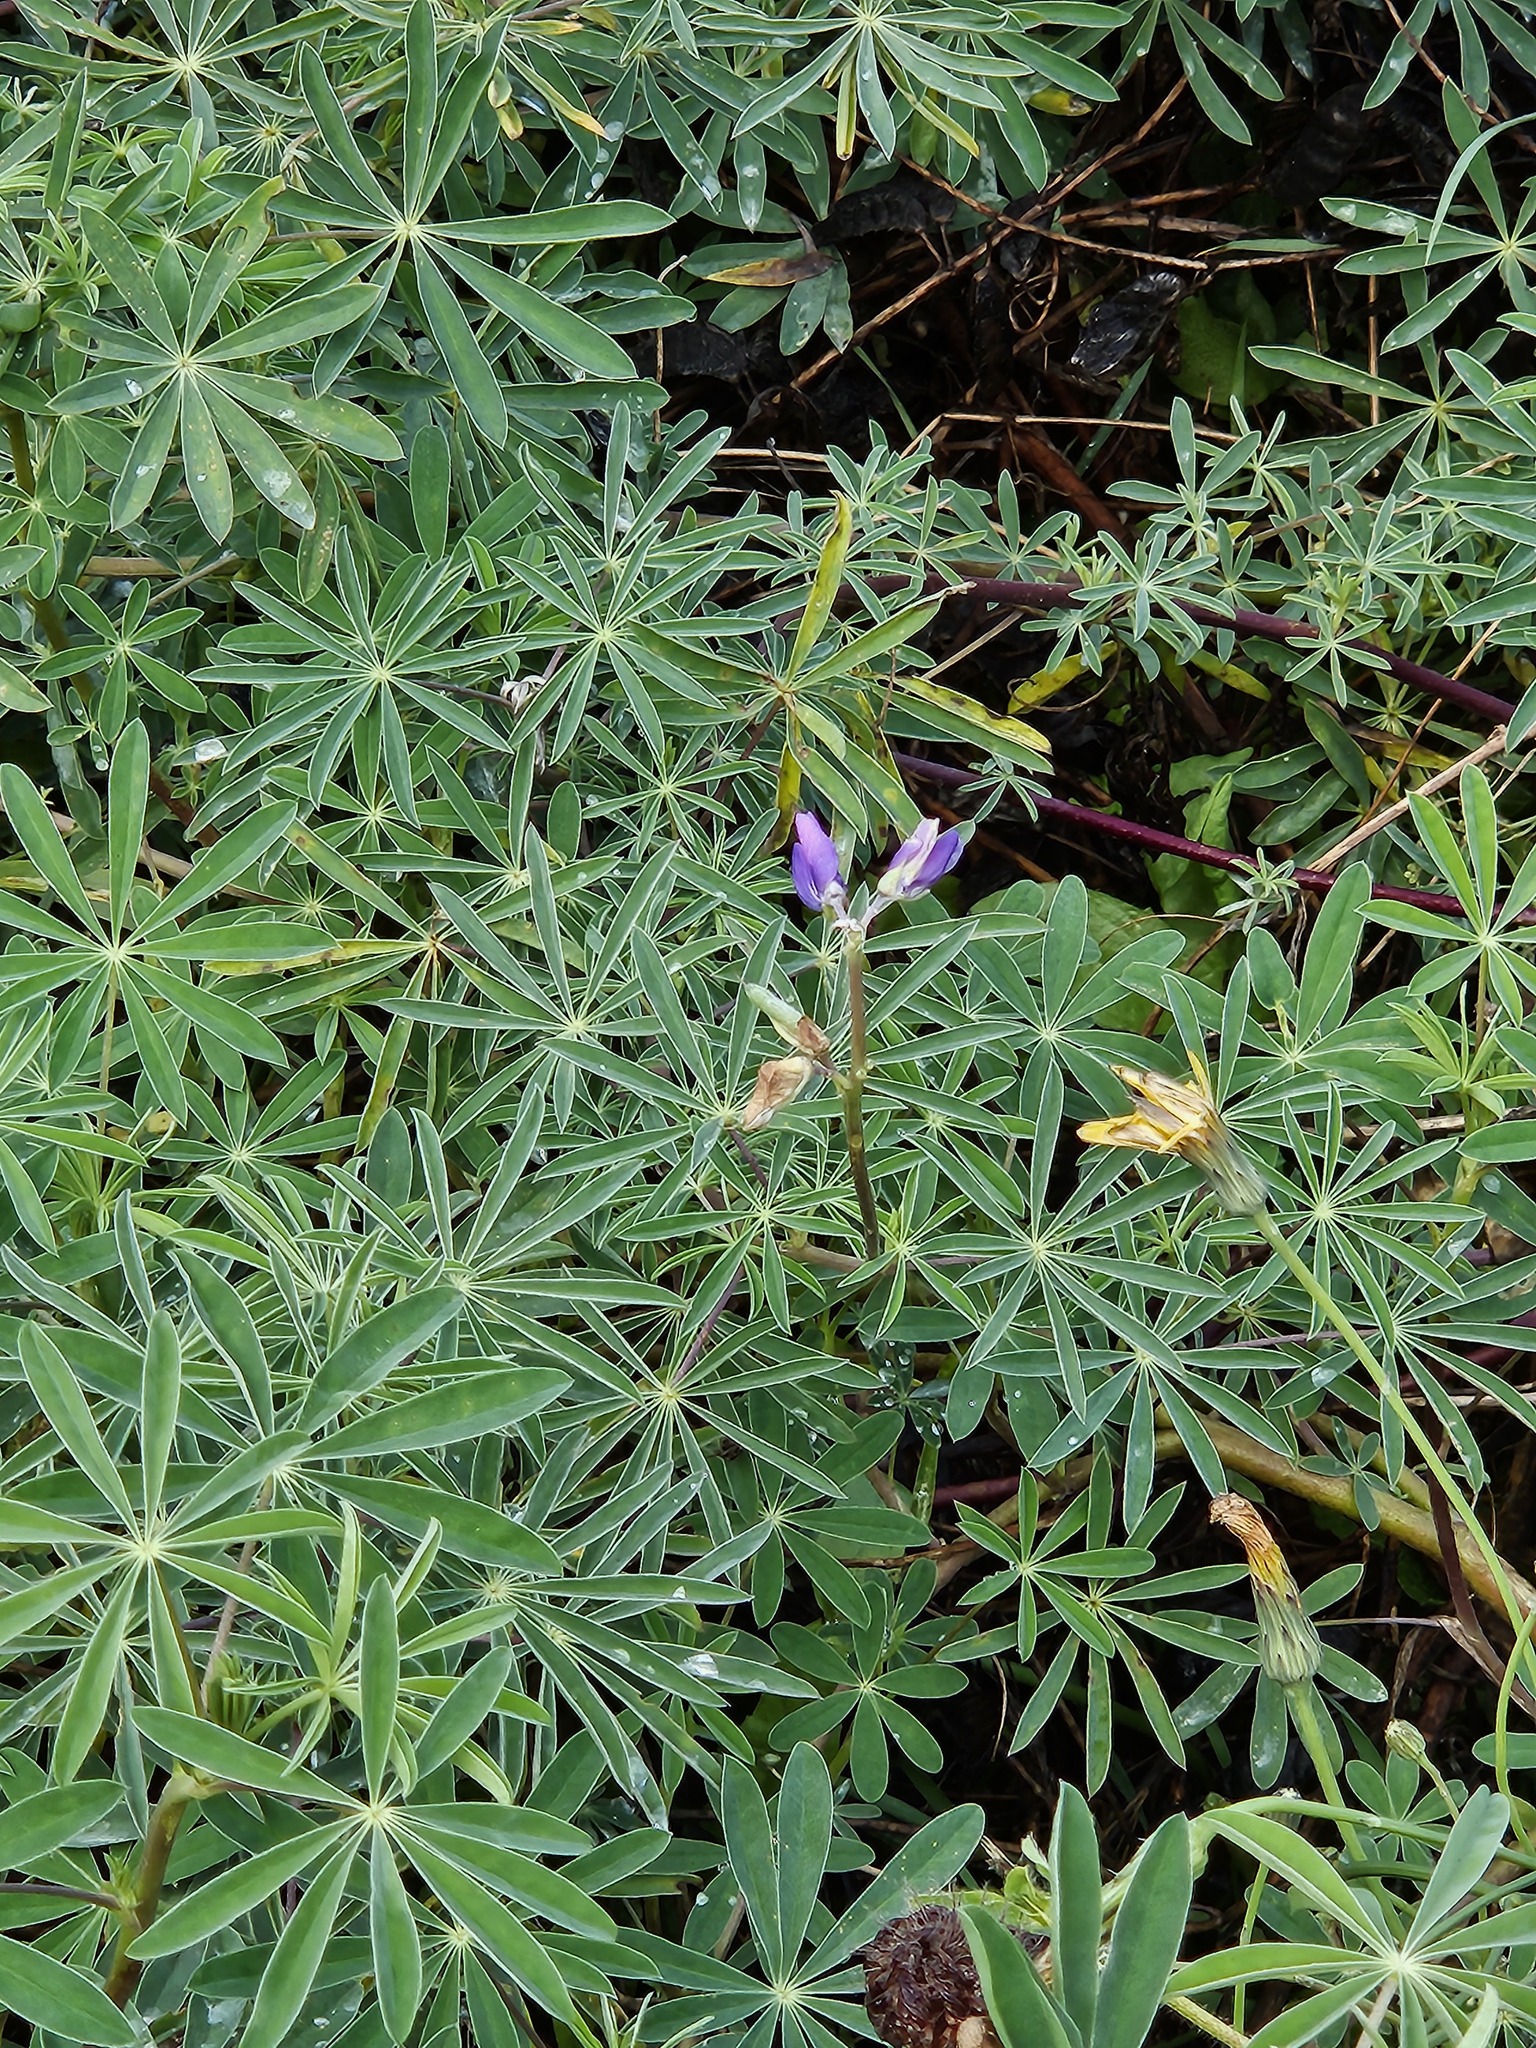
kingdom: Plantae
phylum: Tracheophyta
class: Magnoliopsida
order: Fabales
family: Fabaceae
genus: Lupinus
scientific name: Lupinus arboreus
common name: Yellow bush lupine
